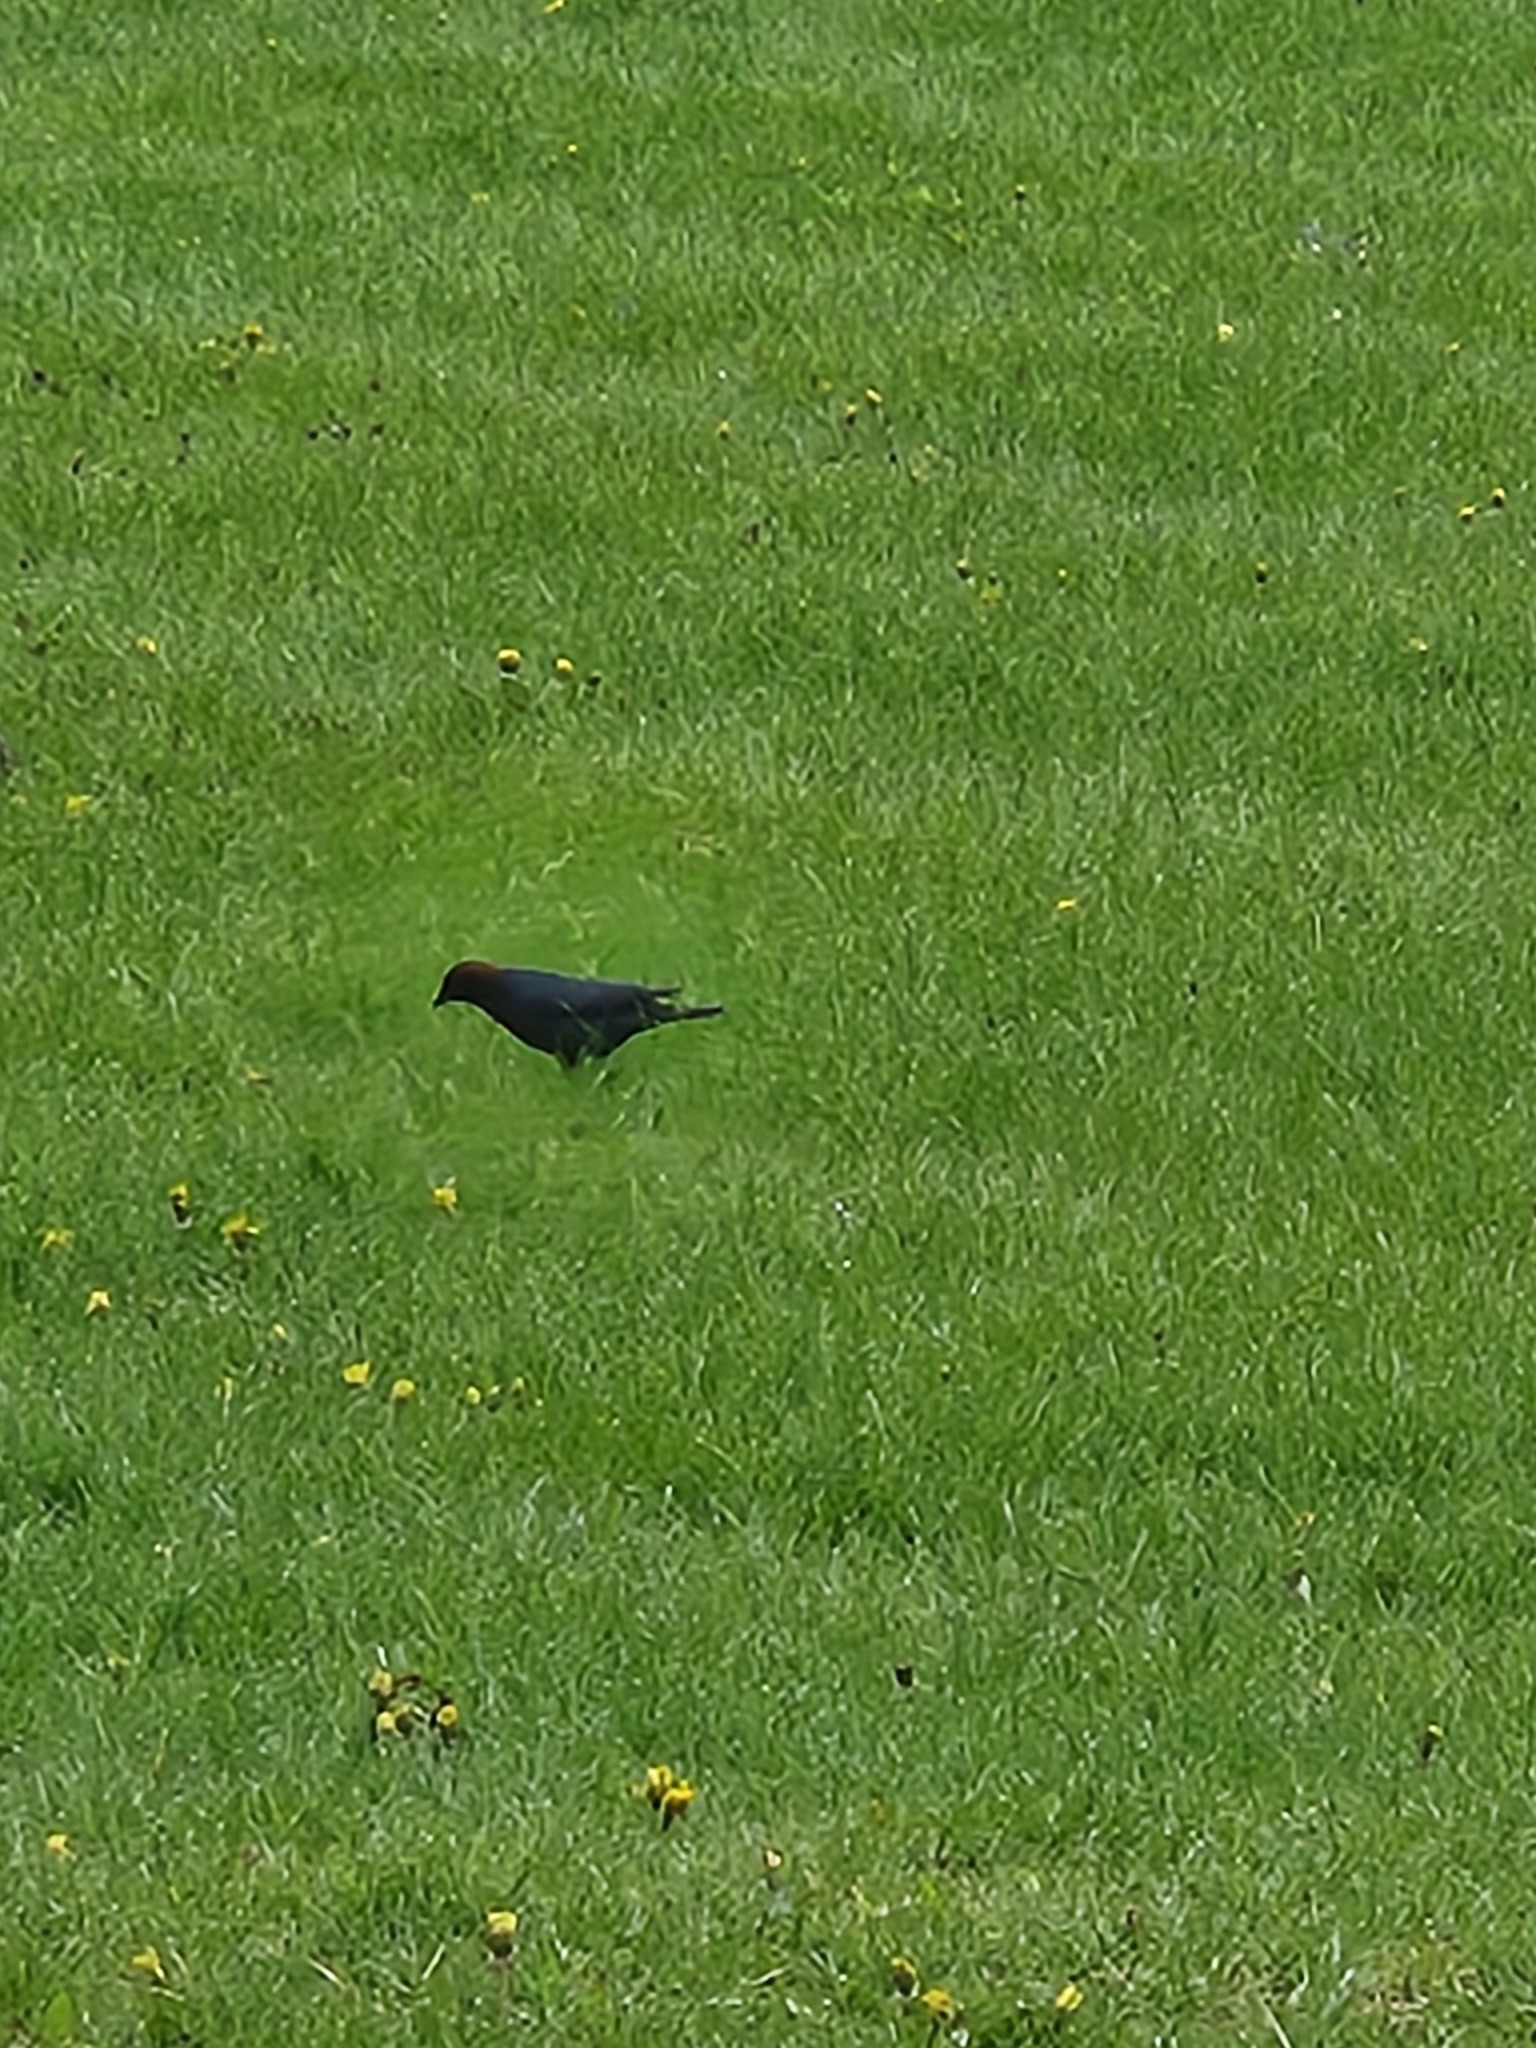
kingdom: Animalia
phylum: Chordata
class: Aves
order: Passeriformes
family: Icteridae
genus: Molothrus
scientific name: Molothrus ater
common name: Brown-headed cowbird
